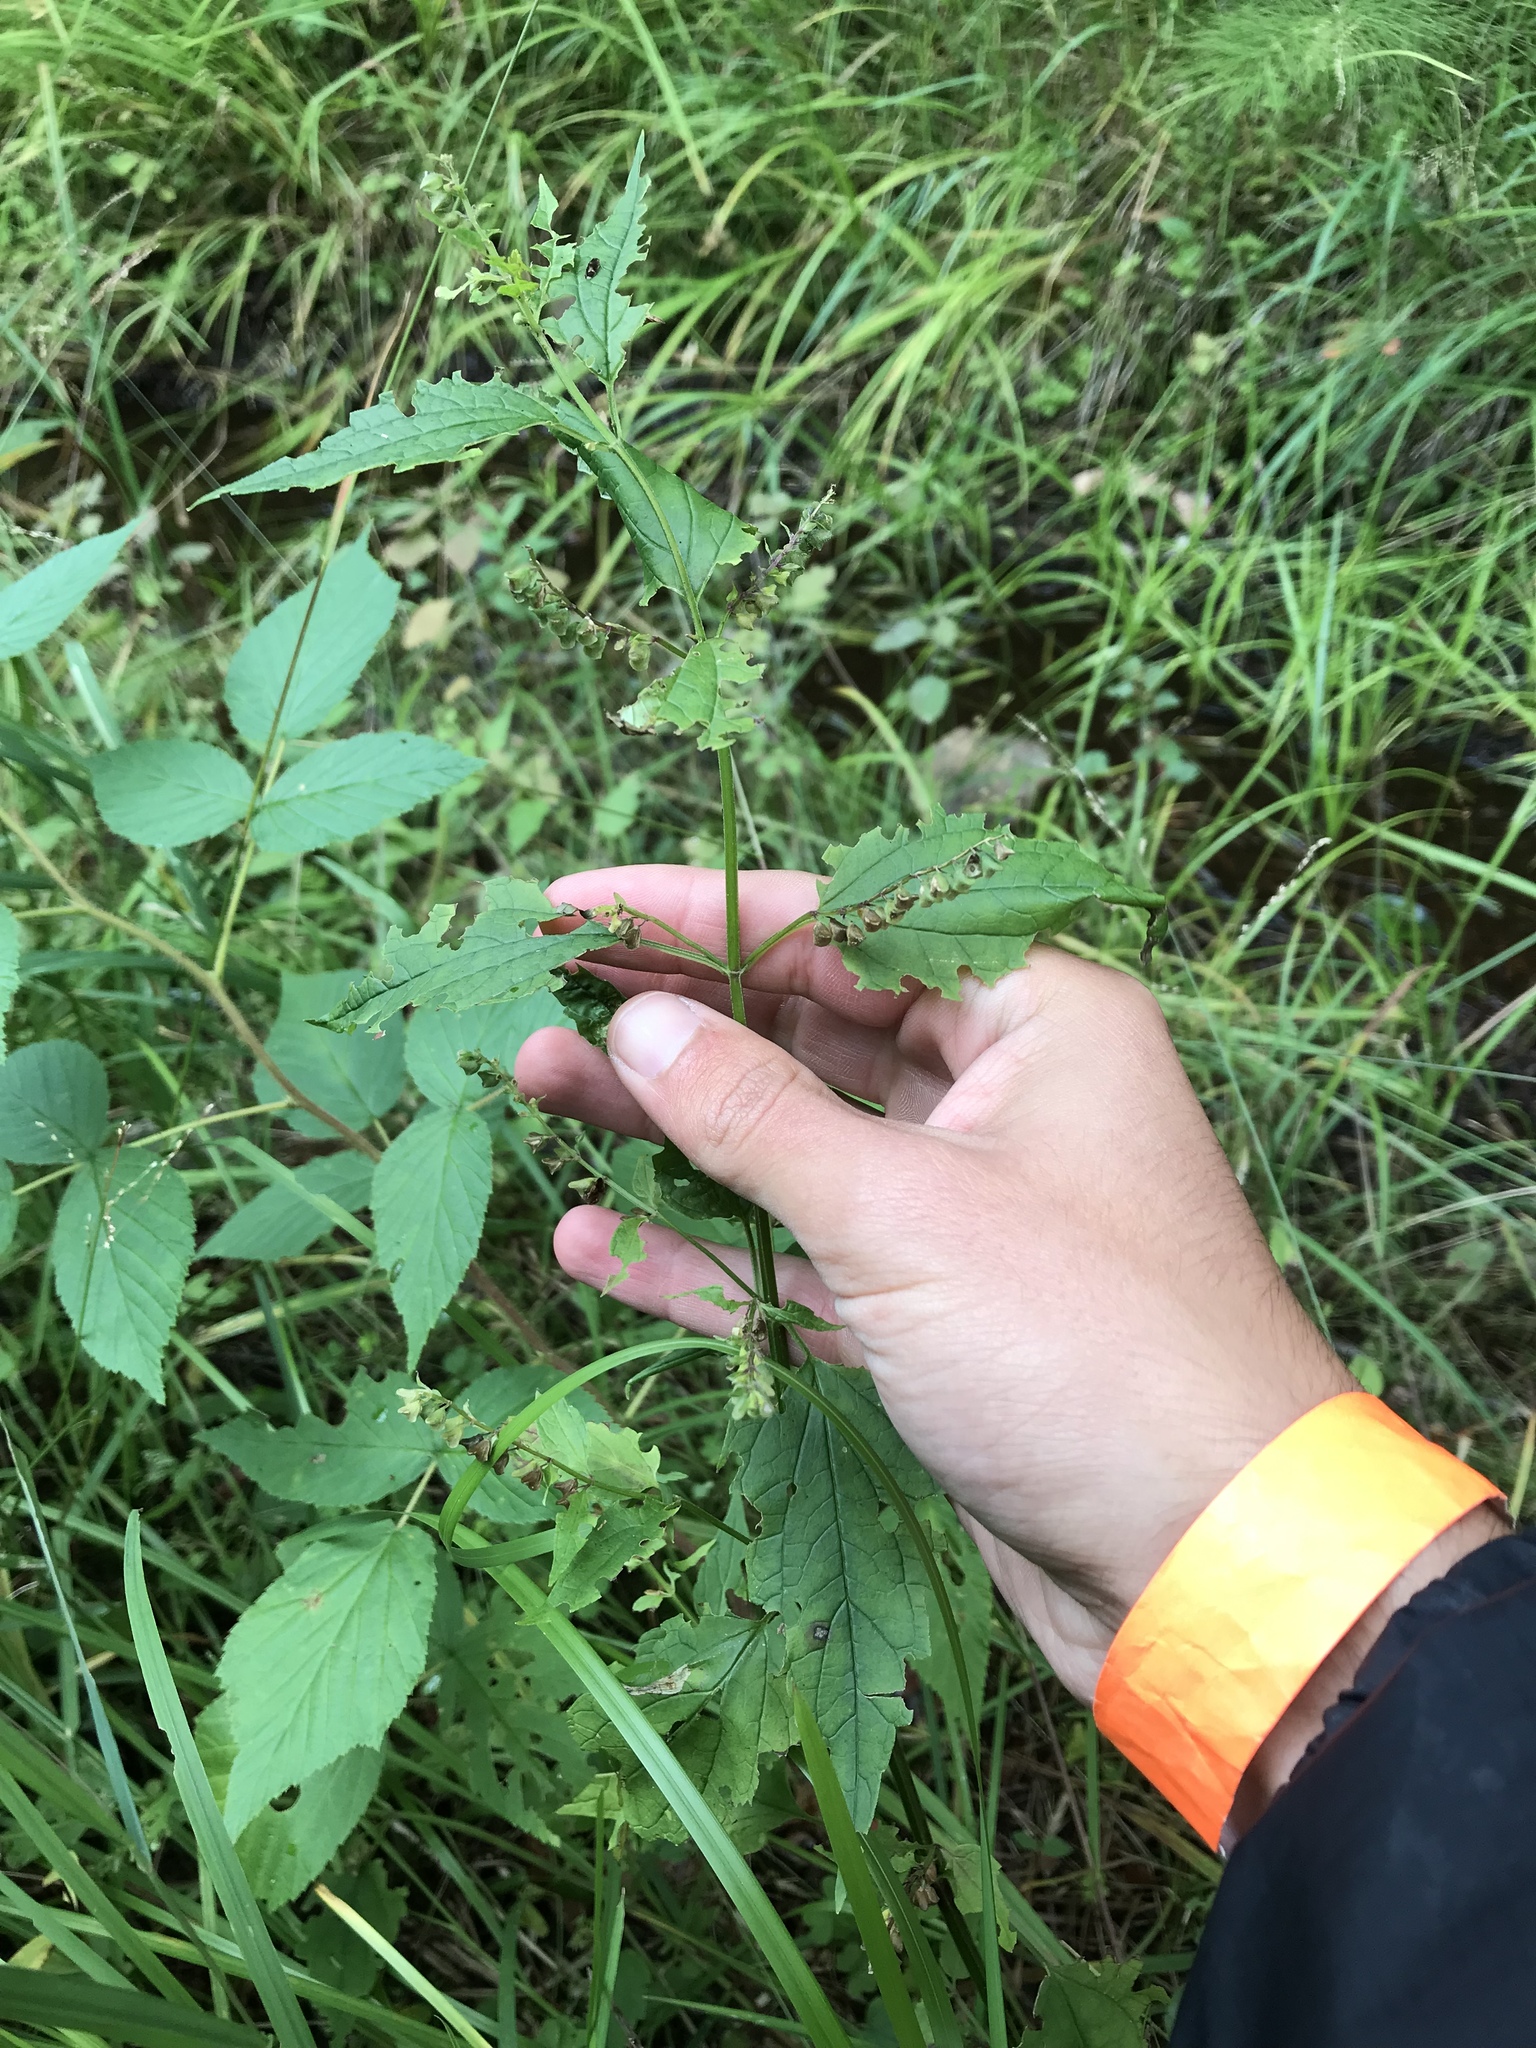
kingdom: Plantae
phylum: Tracheophyta
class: Magnoliopsida
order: Lamiales
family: Lamiaceae
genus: Scutellaria
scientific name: Scutellaria lateriflora
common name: Blue skullcap
